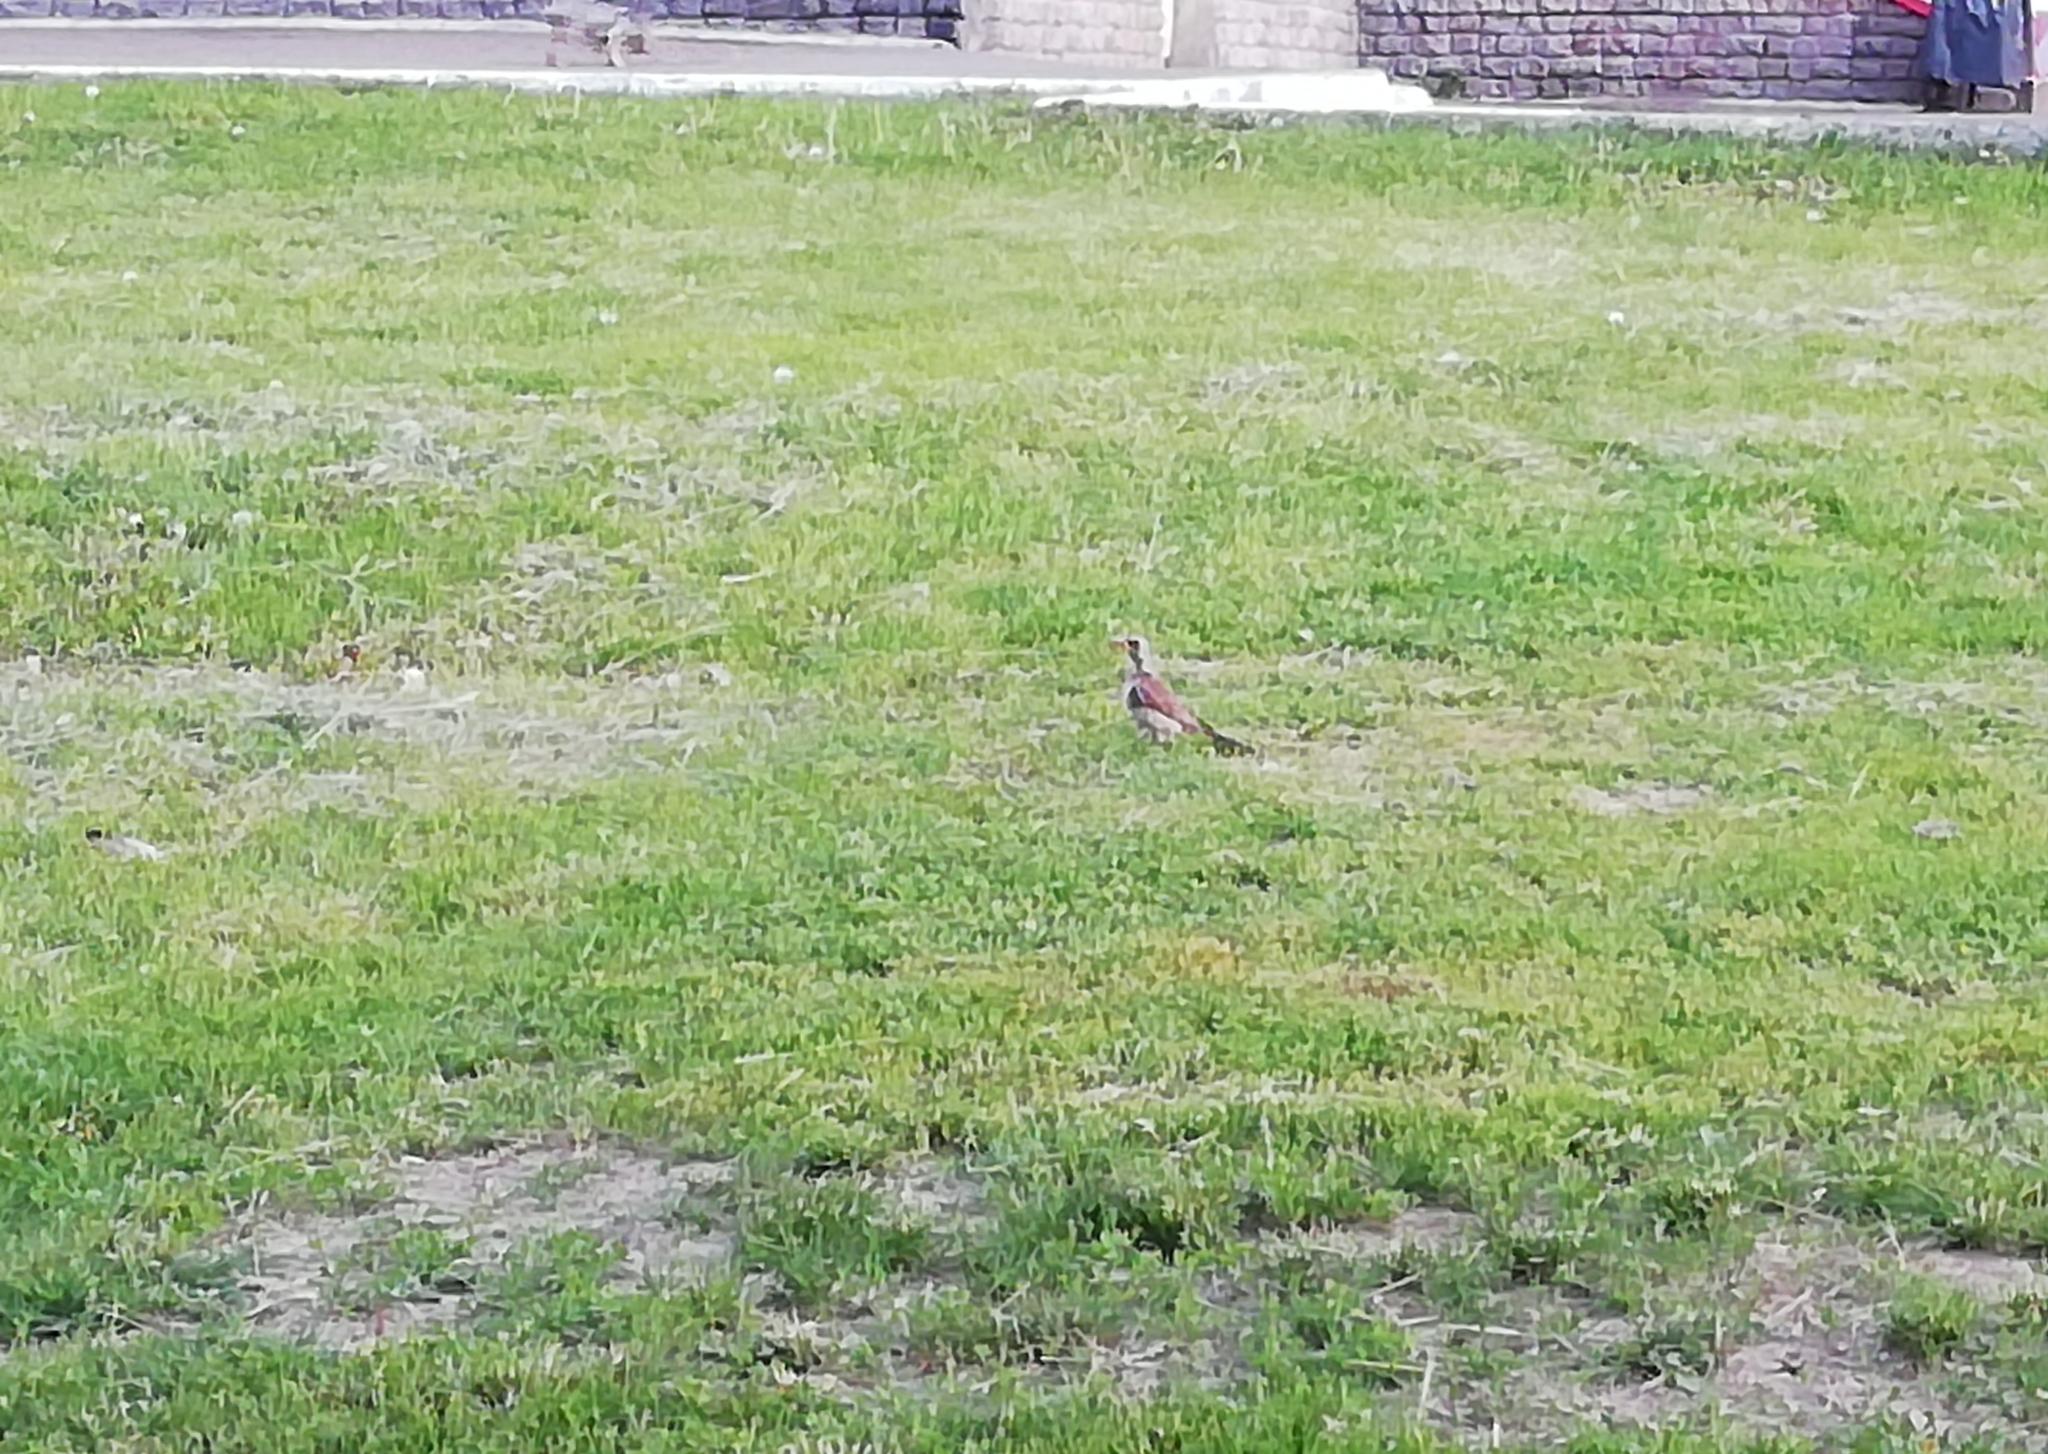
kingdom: Animalia
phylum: Chordata
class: Aves
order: Passeriformes
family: Turdidae
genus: Turdus
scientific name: Turdus pilaris
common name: Fieldfare
